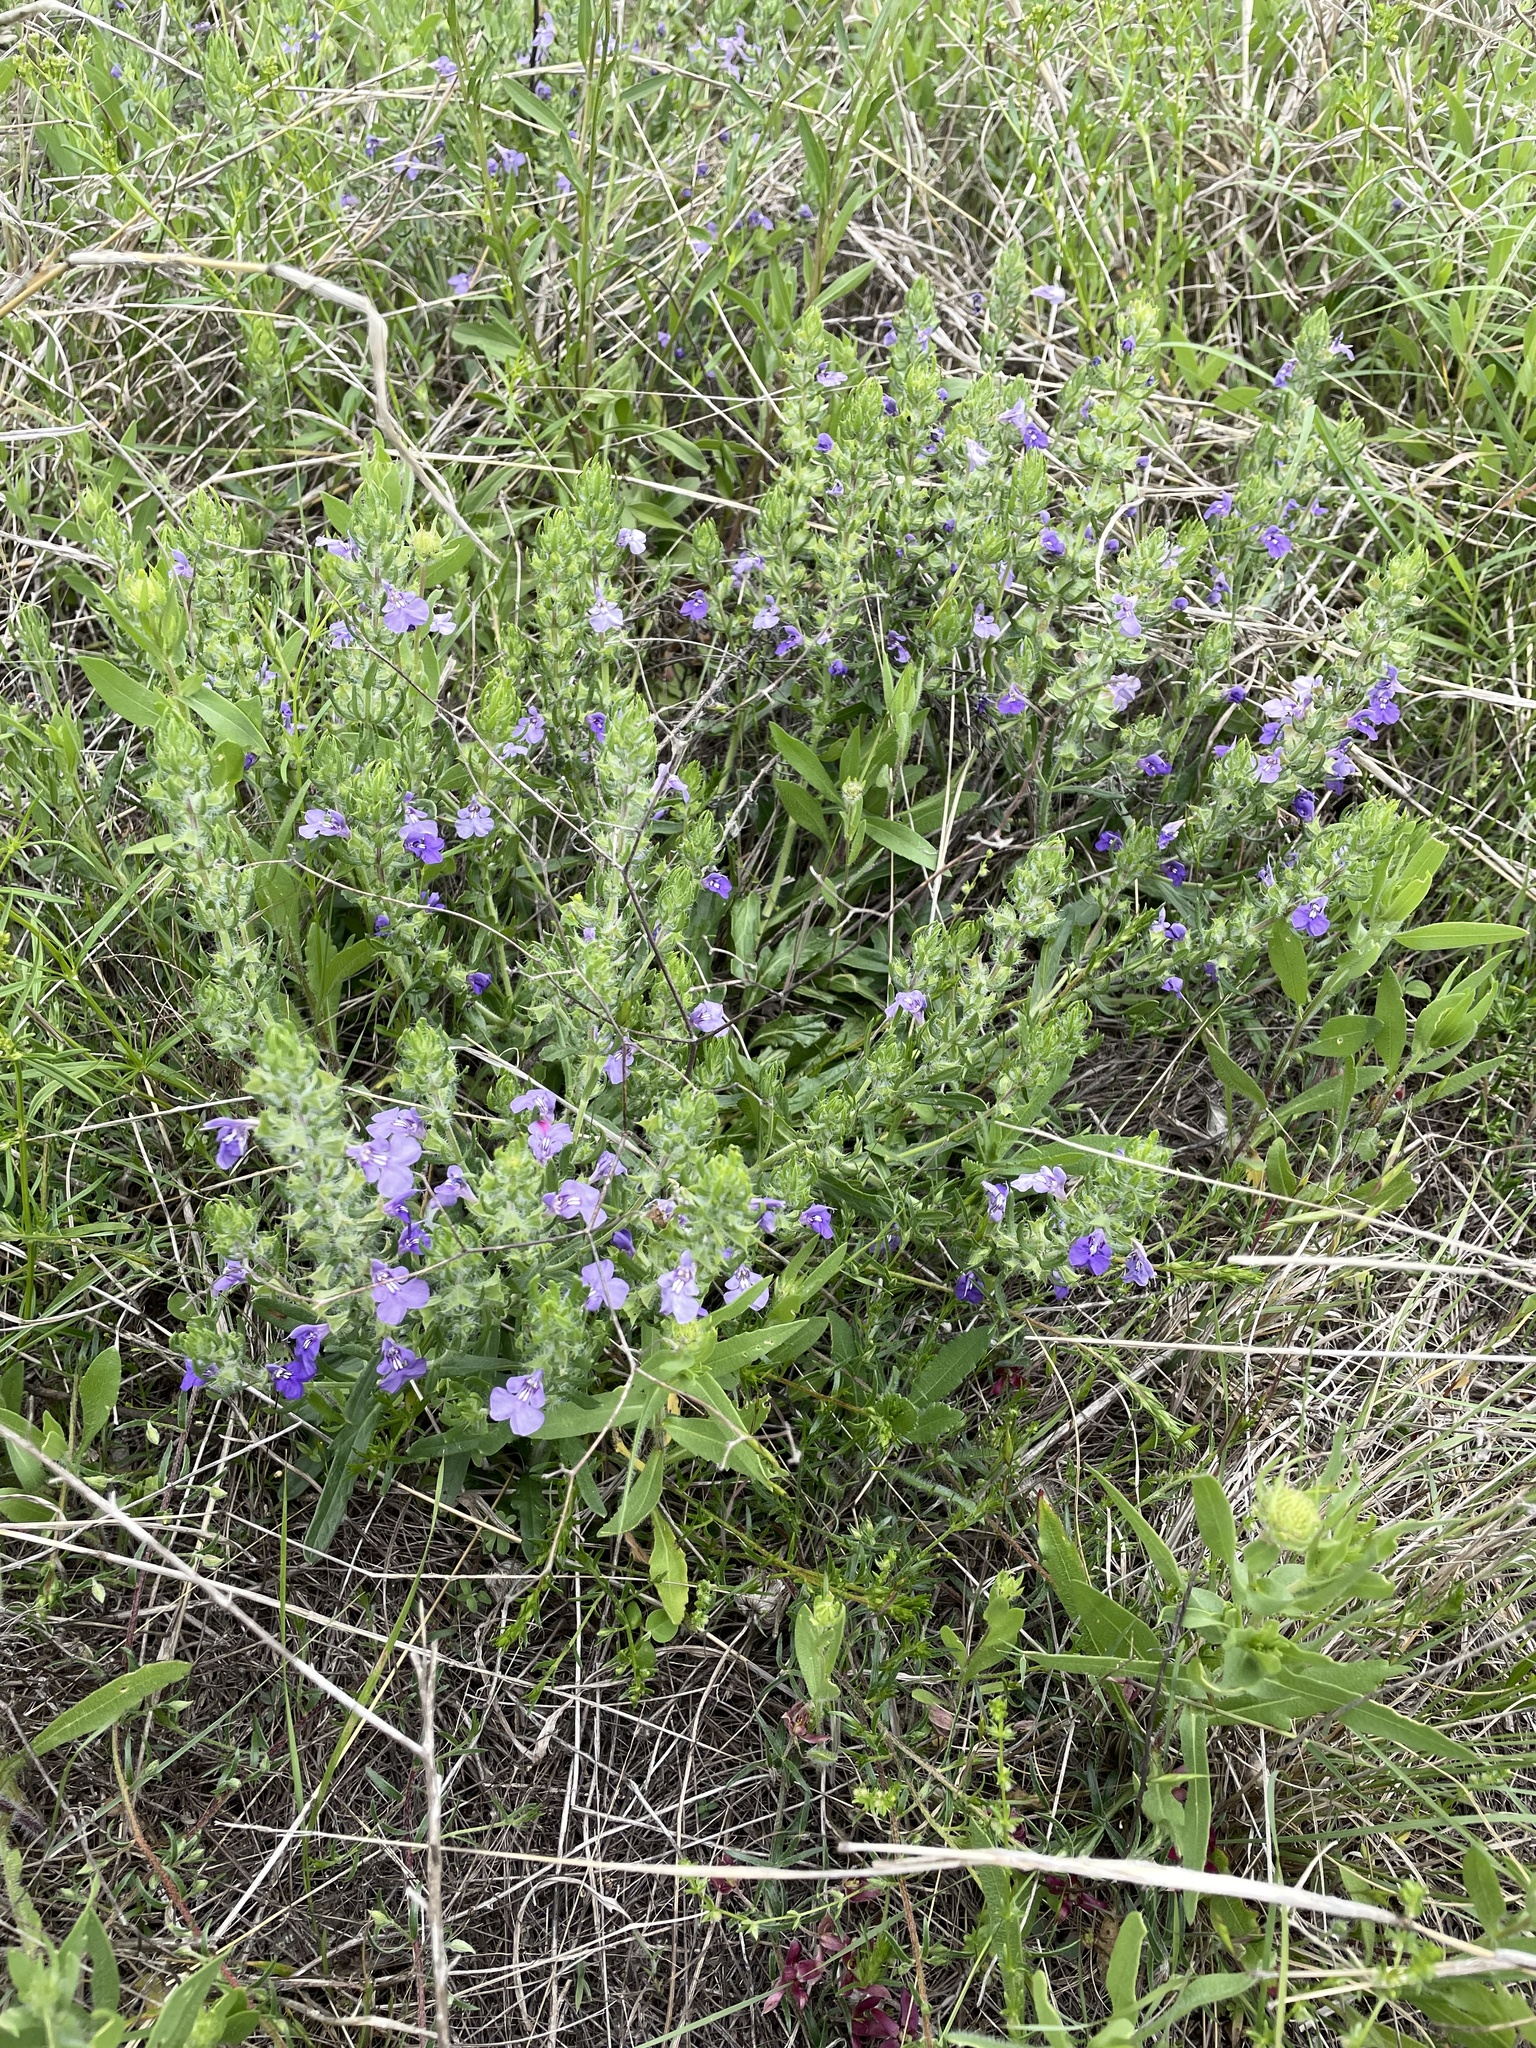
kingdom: Plantae
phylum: Tracheophyta
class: Magnoliopsida
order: Lamiales
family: Lamiaceae
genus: Salvia
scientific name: Salvia texana
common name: Texas sage
